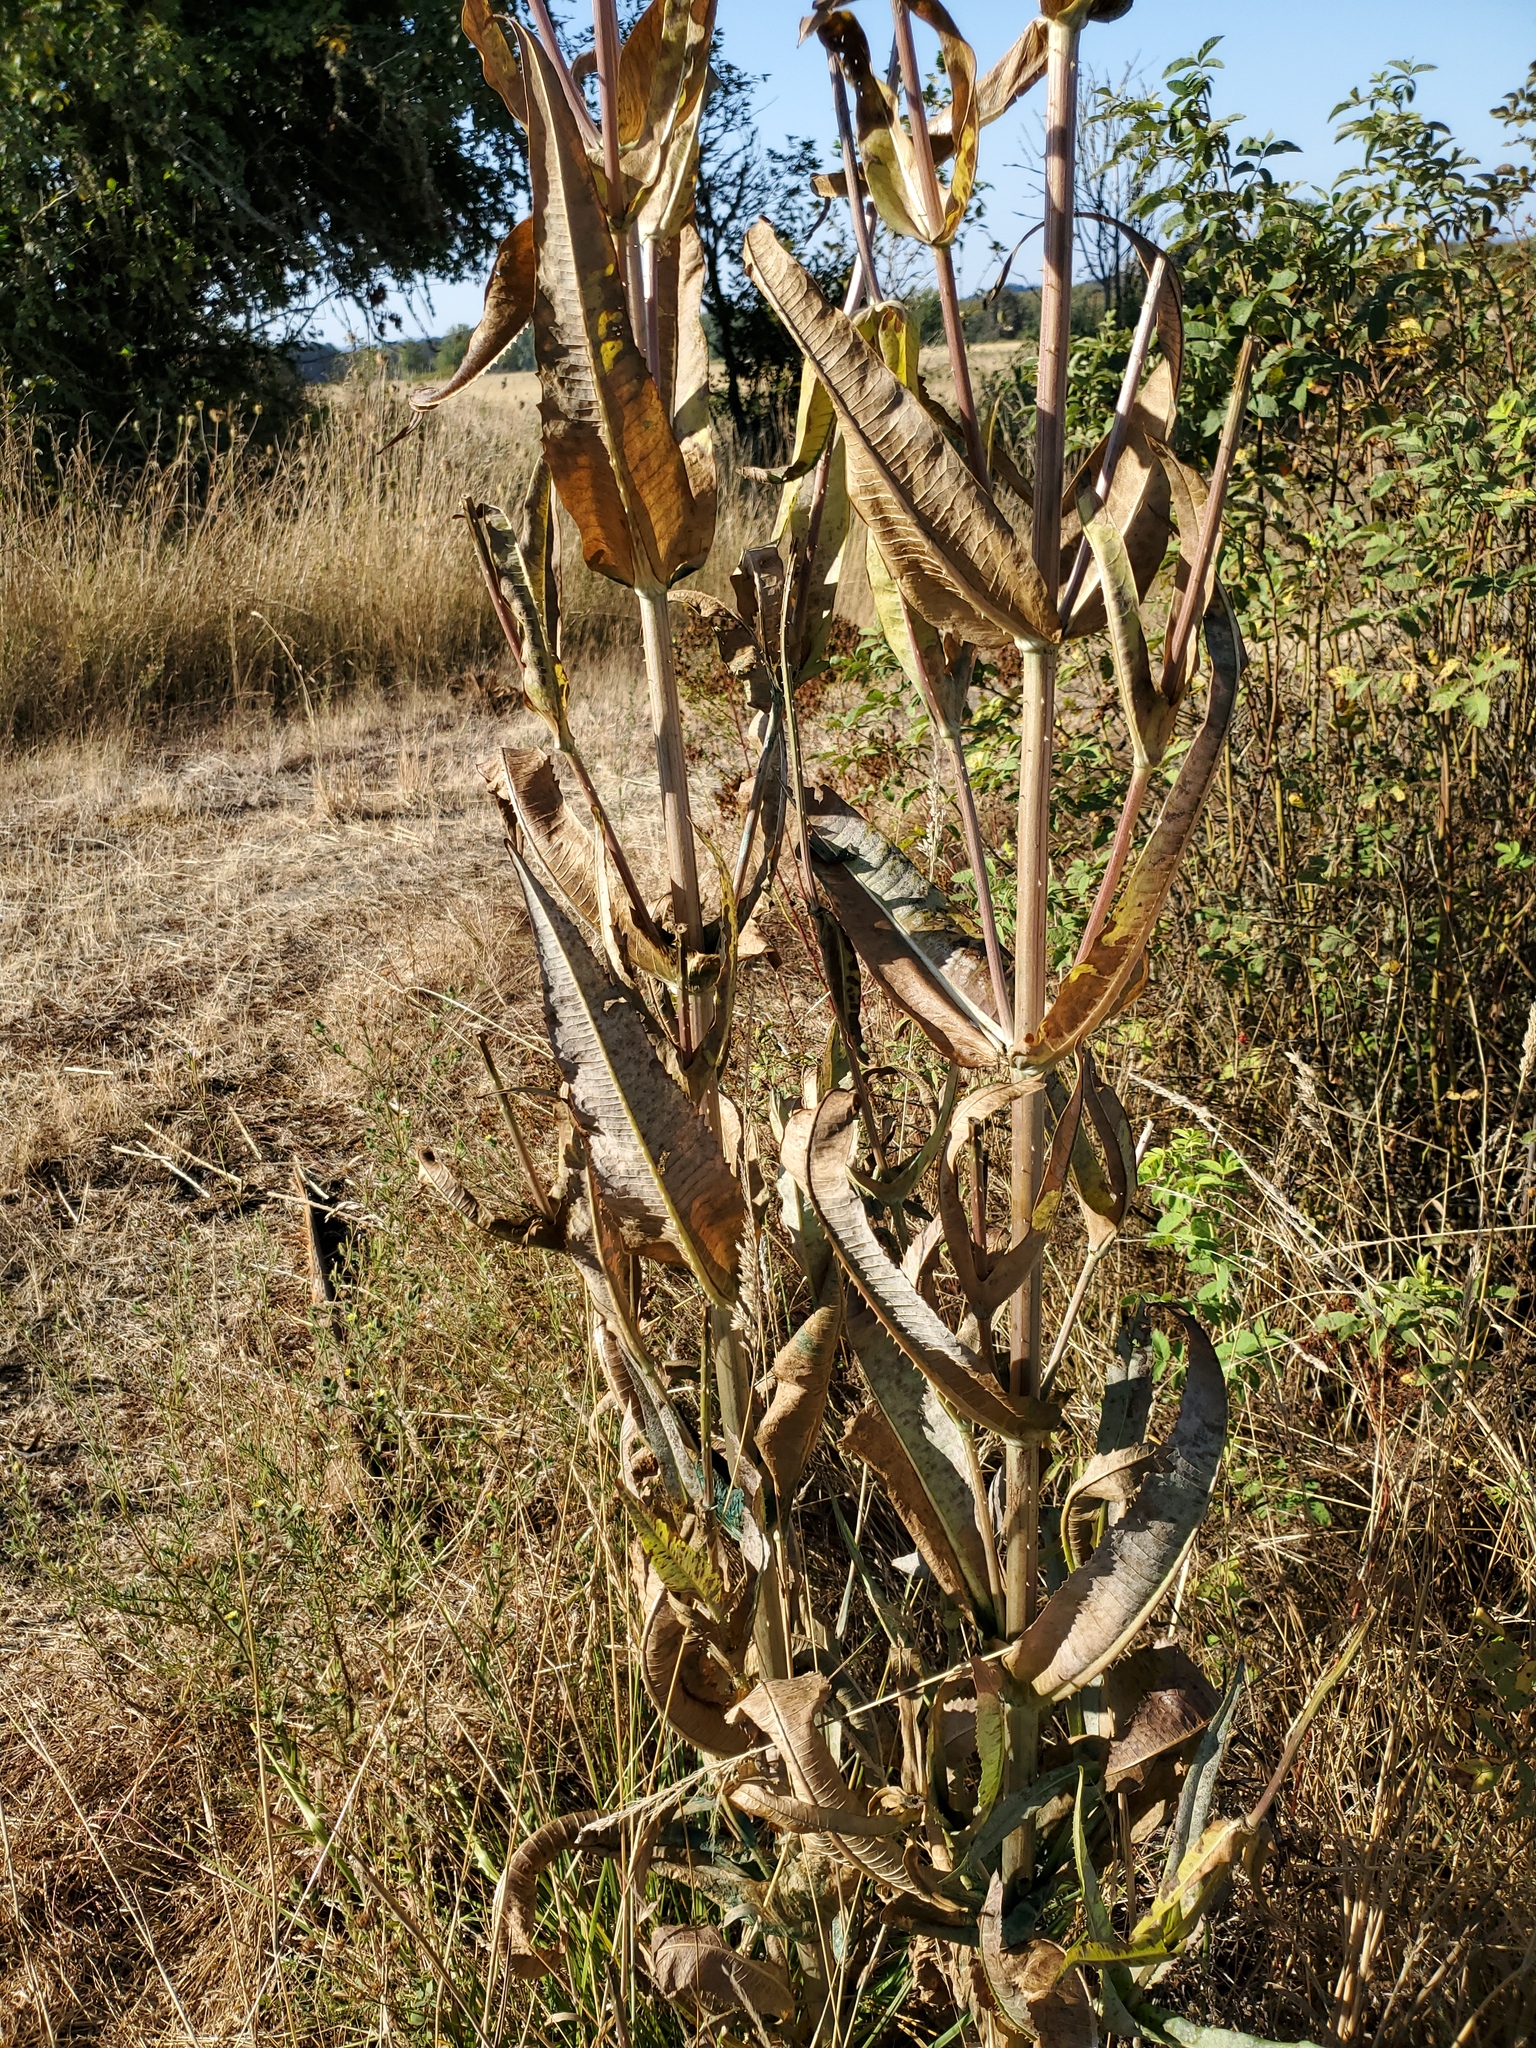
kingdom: Plantae
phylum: Tracheophyta
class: Magnoliopsida
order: Dipsacales
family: Caprifoliaceae
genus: Dipsacus
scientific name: Dipsacus fullonum
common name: Teasel
